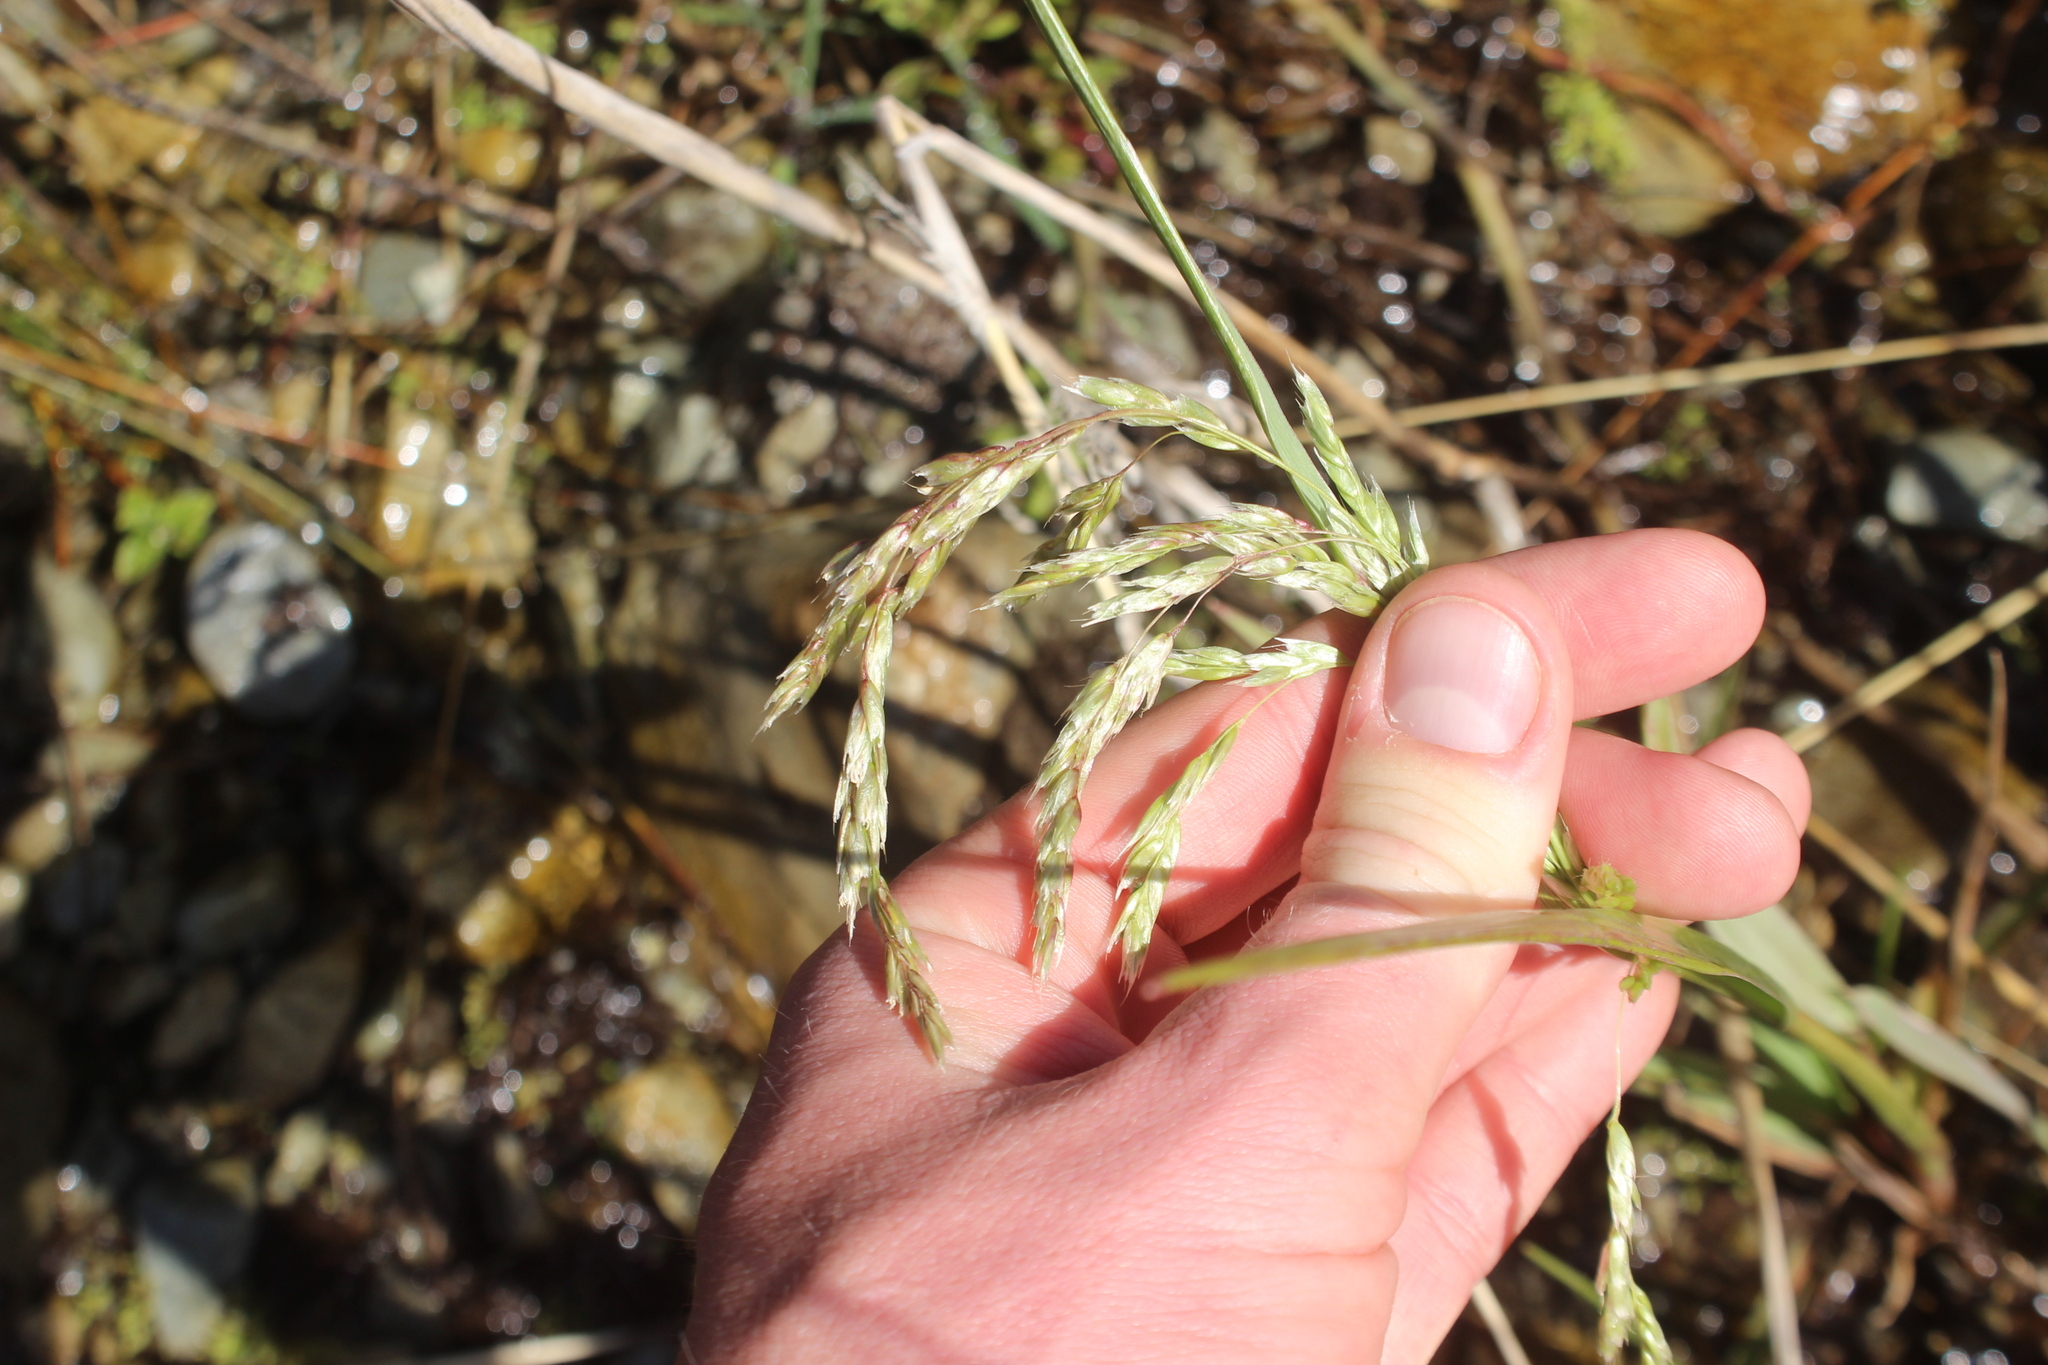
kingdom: Plantae
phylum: Tracheophyta
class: Liliopsida
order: Poales
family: Poaceae
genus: Anthoxanthum
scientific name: Anthoxanthum redolens
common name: Sweet holy grass
